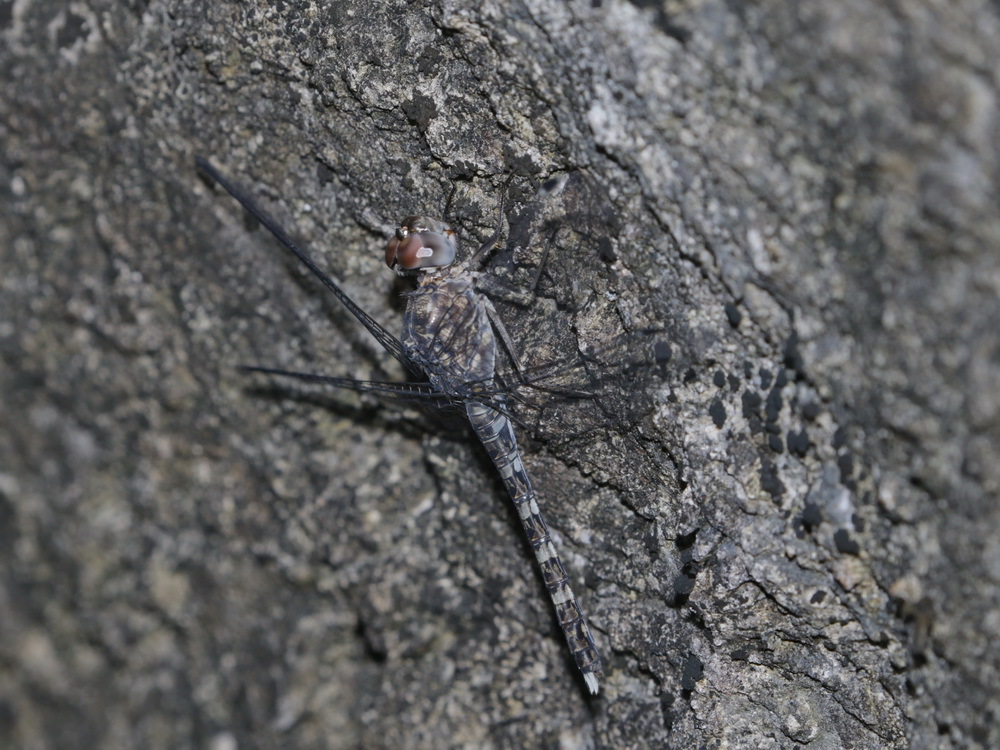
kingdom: Animalia
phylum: Arthropoda
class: Insecta
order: Odonata
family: Libellulidae
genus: Bradinopyga
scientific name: Bradinopyga geminata
